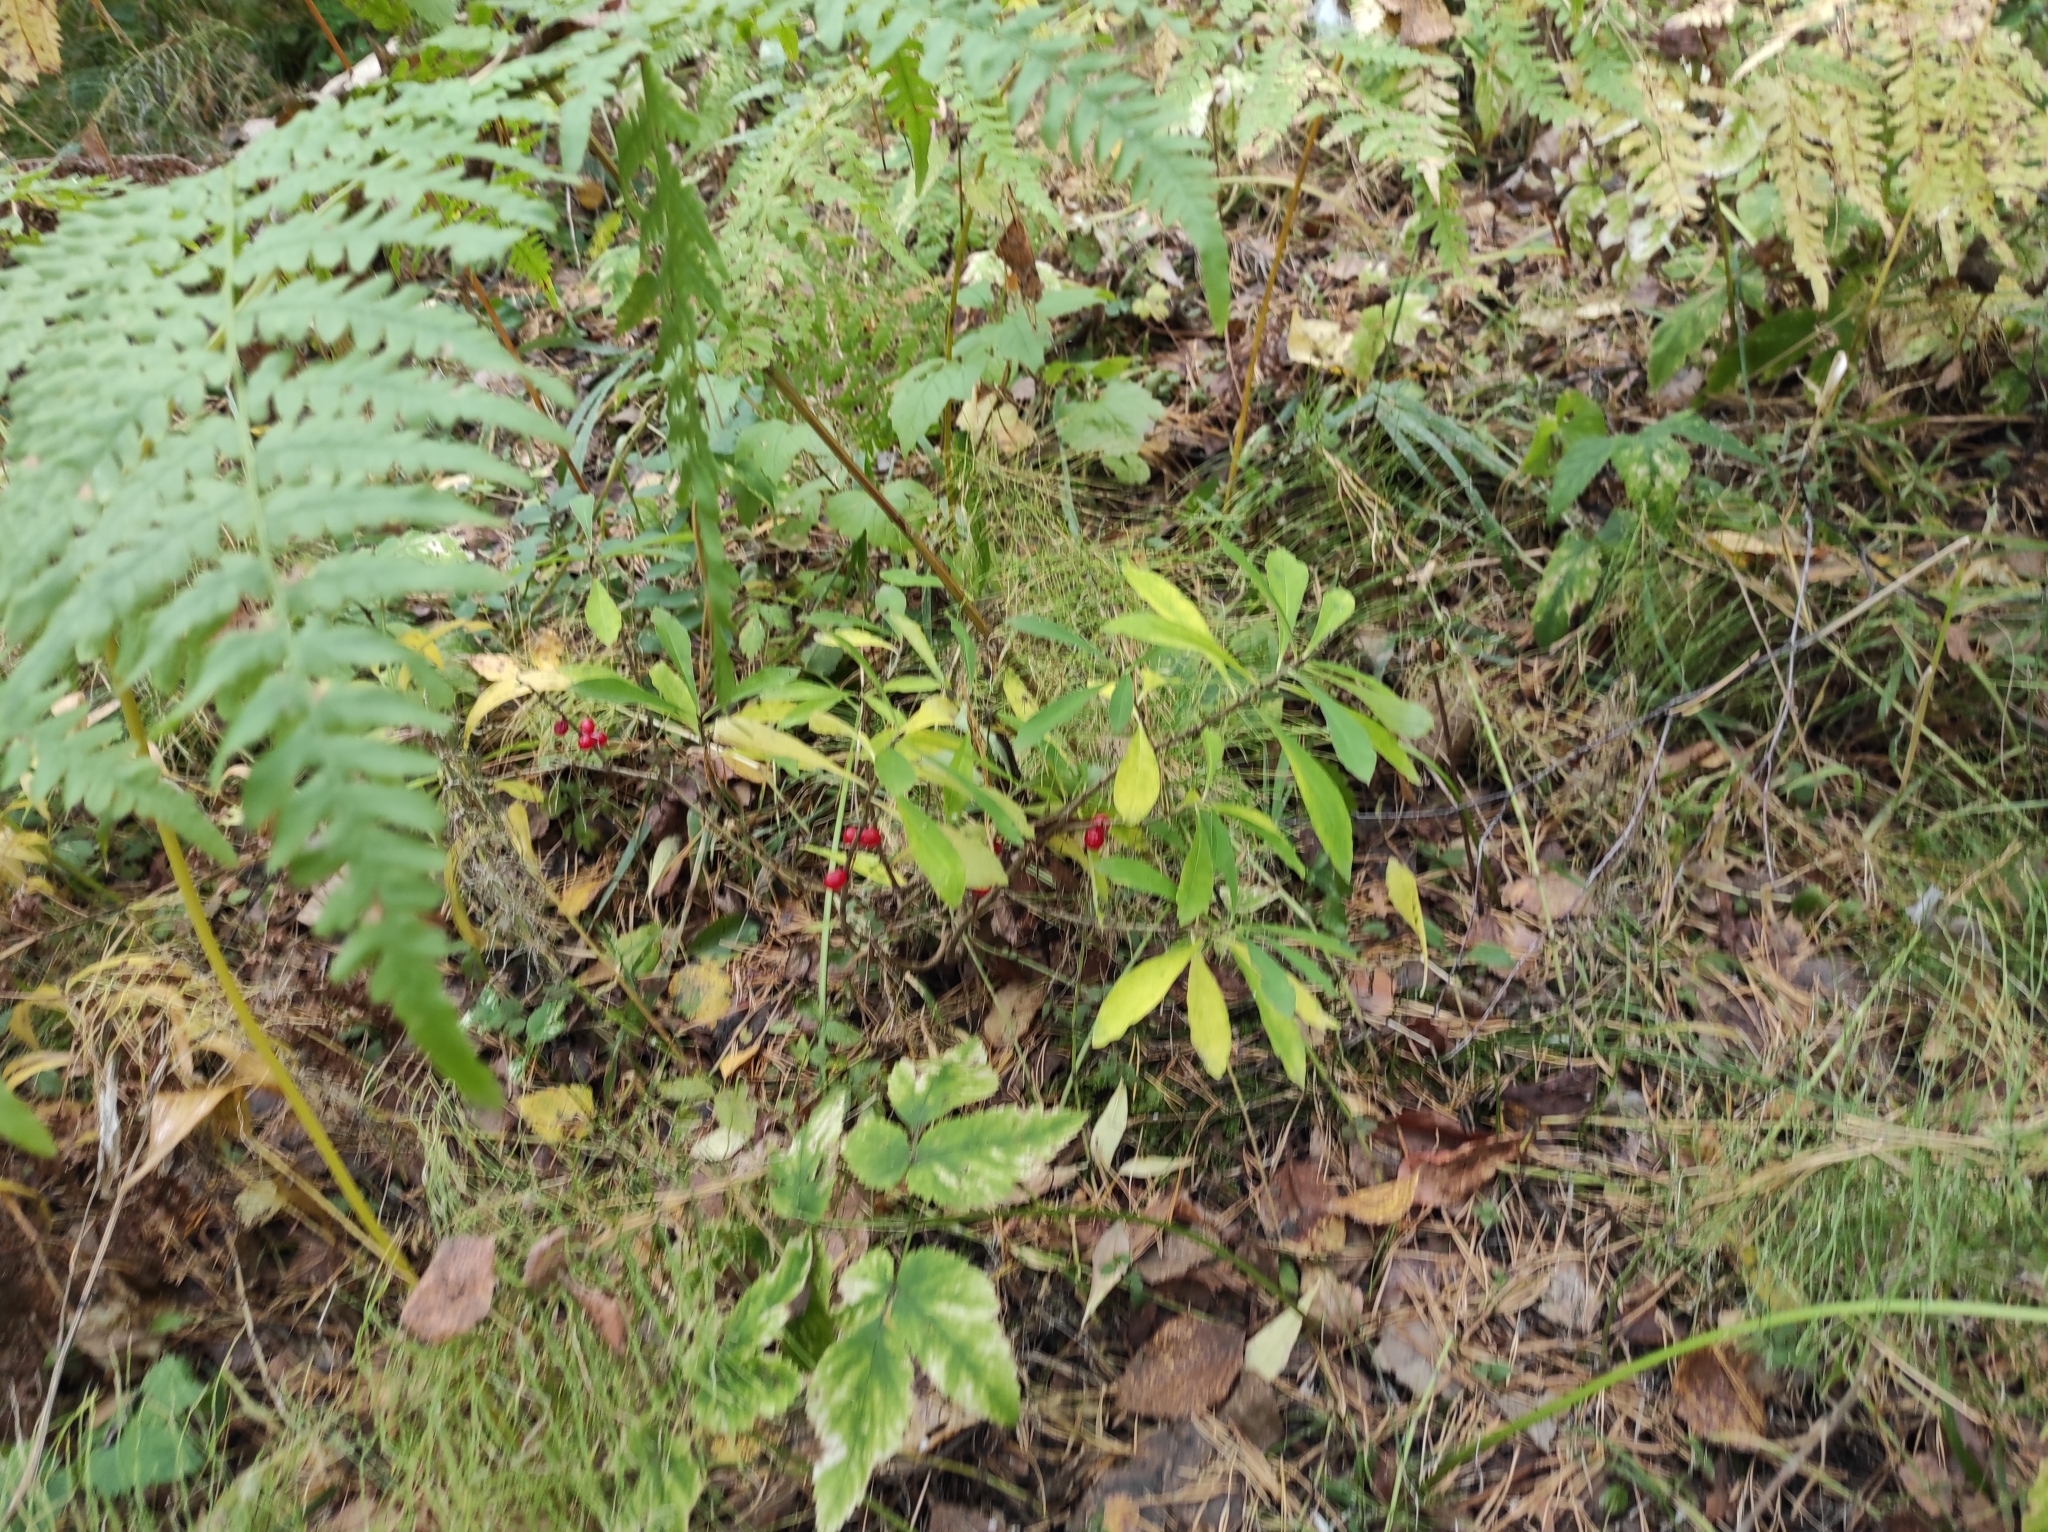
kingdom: Plantae
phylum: Tracheophyta
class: Magnoliopsida
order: Malvales
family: Thymelaeaceae
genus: Daphne
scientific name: Daphne mezereum
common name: Mezereon
